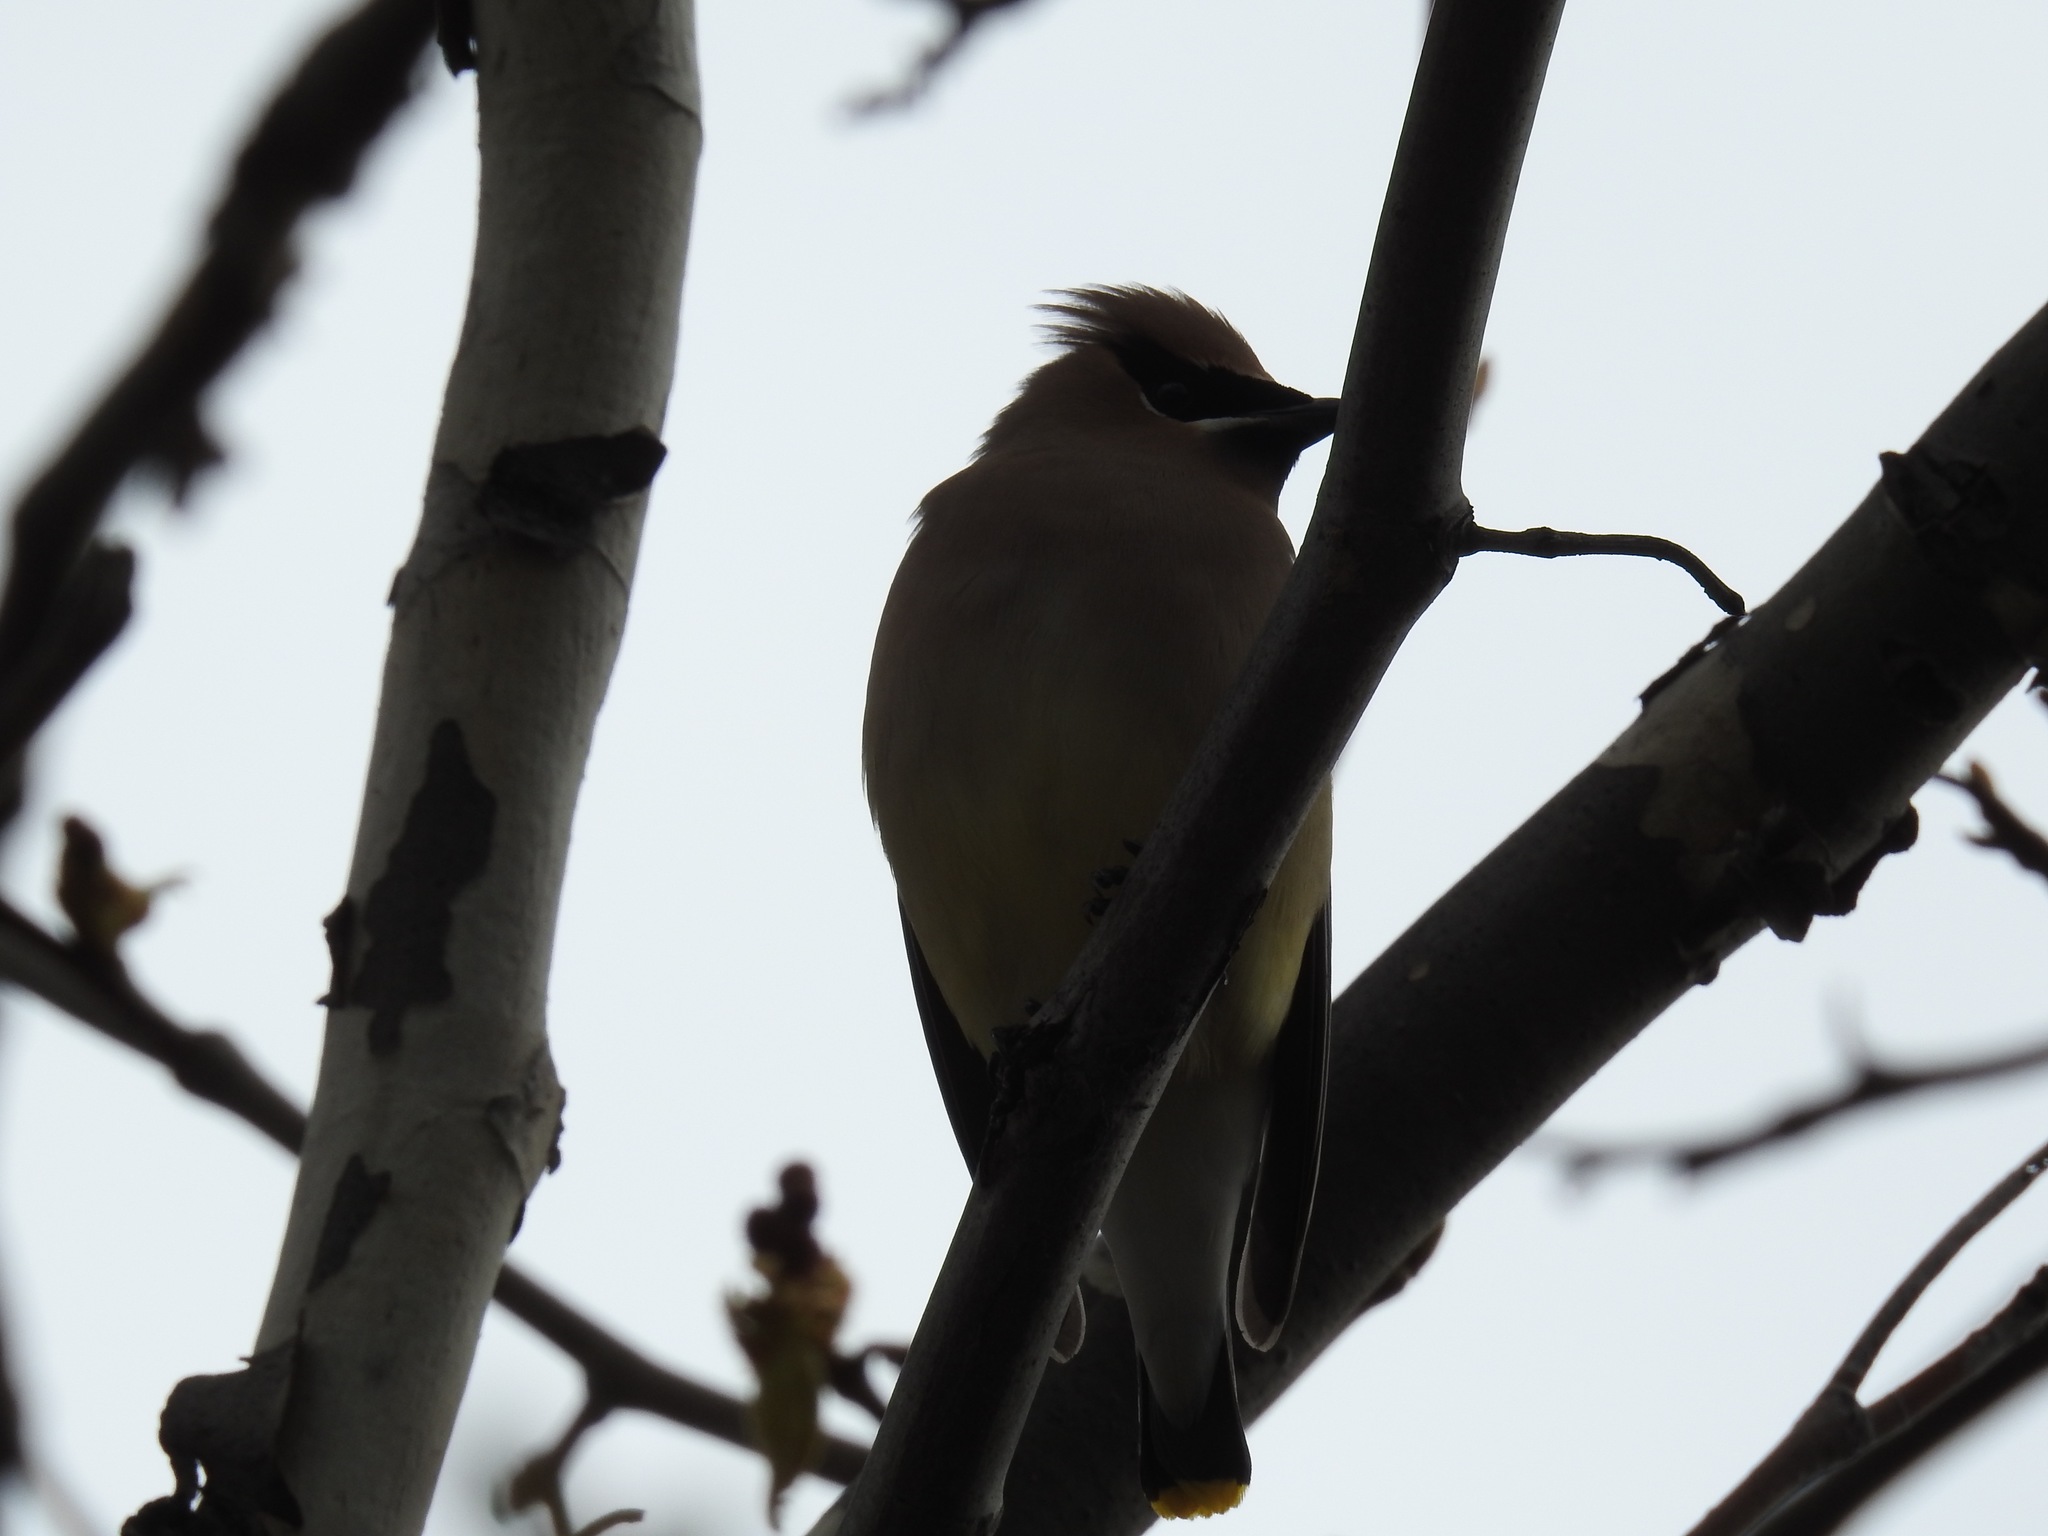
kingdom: Animalia
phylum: Chordata
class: Aves
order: Passeriformes
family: Bombycillidae
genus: Bombycilla
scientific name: Bombycilla cedrorum
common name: Cedar waxwing
